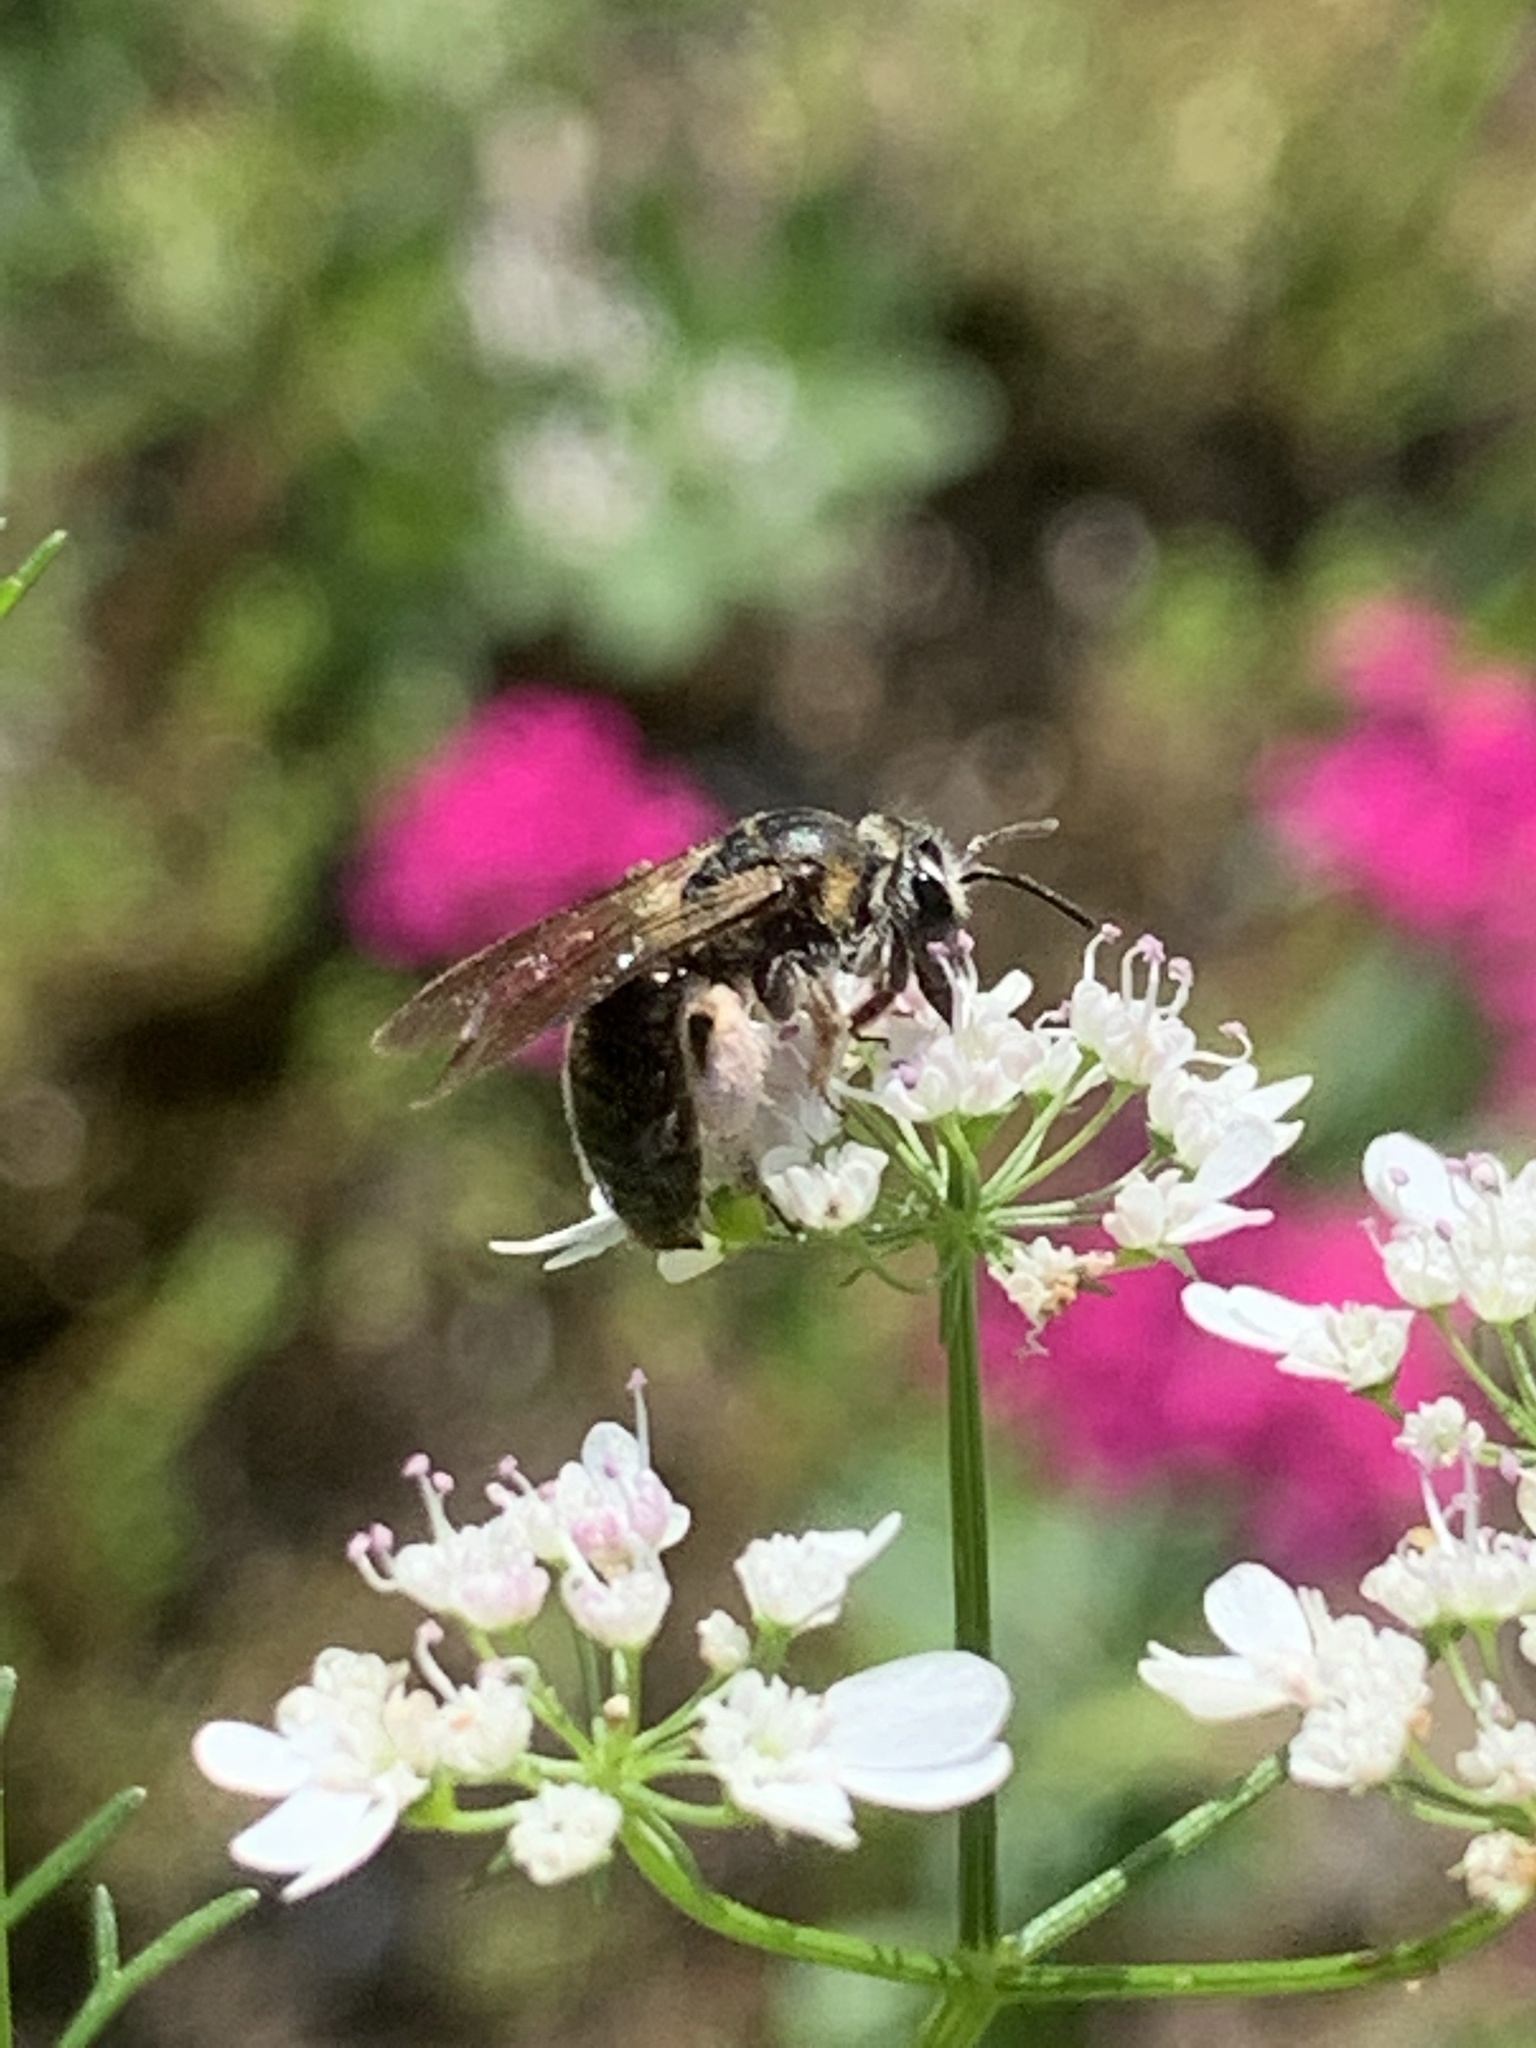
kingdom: Animalia
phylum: Arthropoda
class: Insecta
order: Hymenoptera
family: Andrenidae
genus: Andrena
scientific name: Andrena
